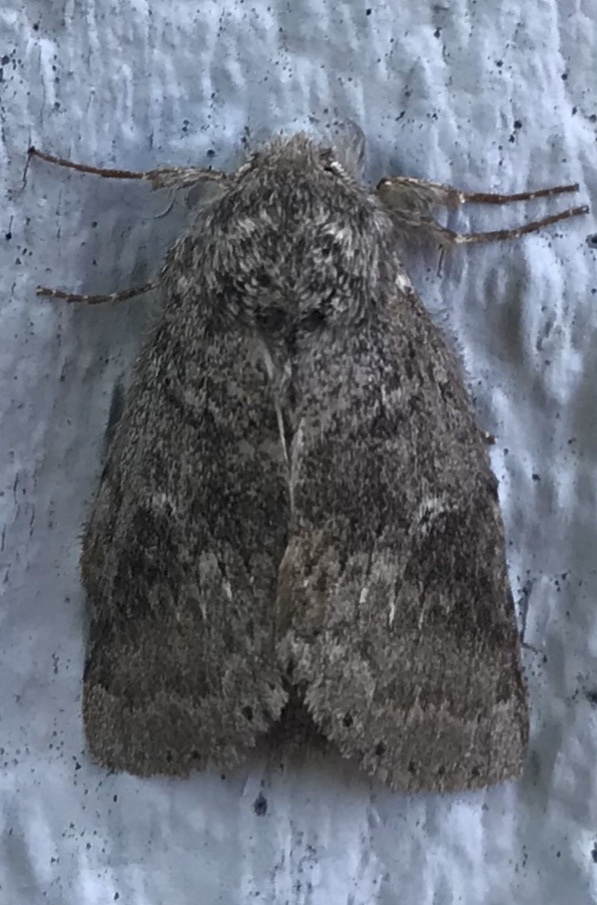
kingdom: Animalia
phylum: Arthropoda
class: Insecta
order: Lepidoptera
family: Notodontidae
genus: Lochmaeus
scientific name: Lochmaeus manteo
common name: Variable oakleaf caterpillar moth
